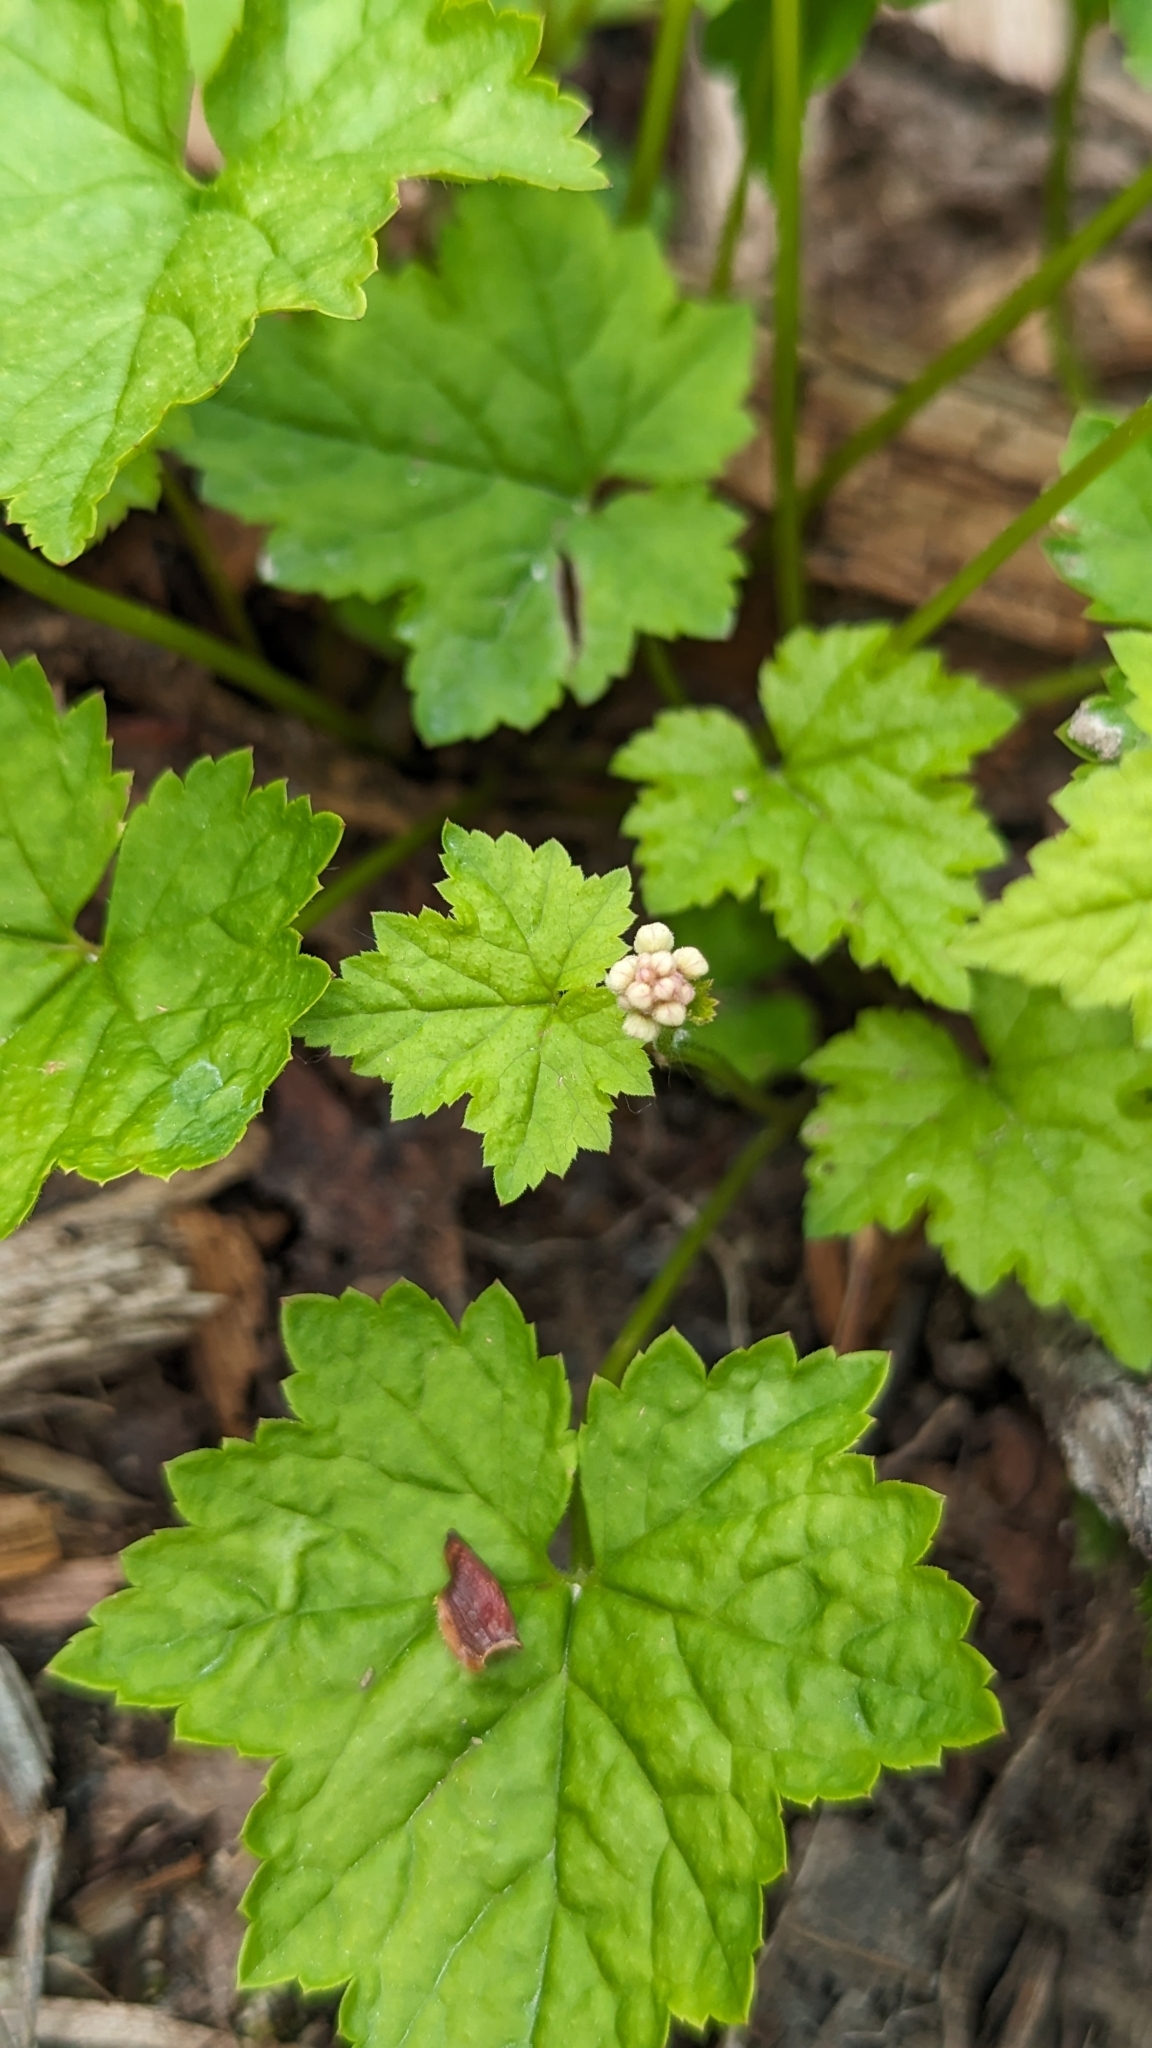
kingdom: Plantae
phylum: Tracheophyta
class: Magnoliopsida
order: Saxifragales
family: Saxifragaceae
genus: Tiarella
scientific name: Tiarella trifoliata
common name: Sugar-scoop
